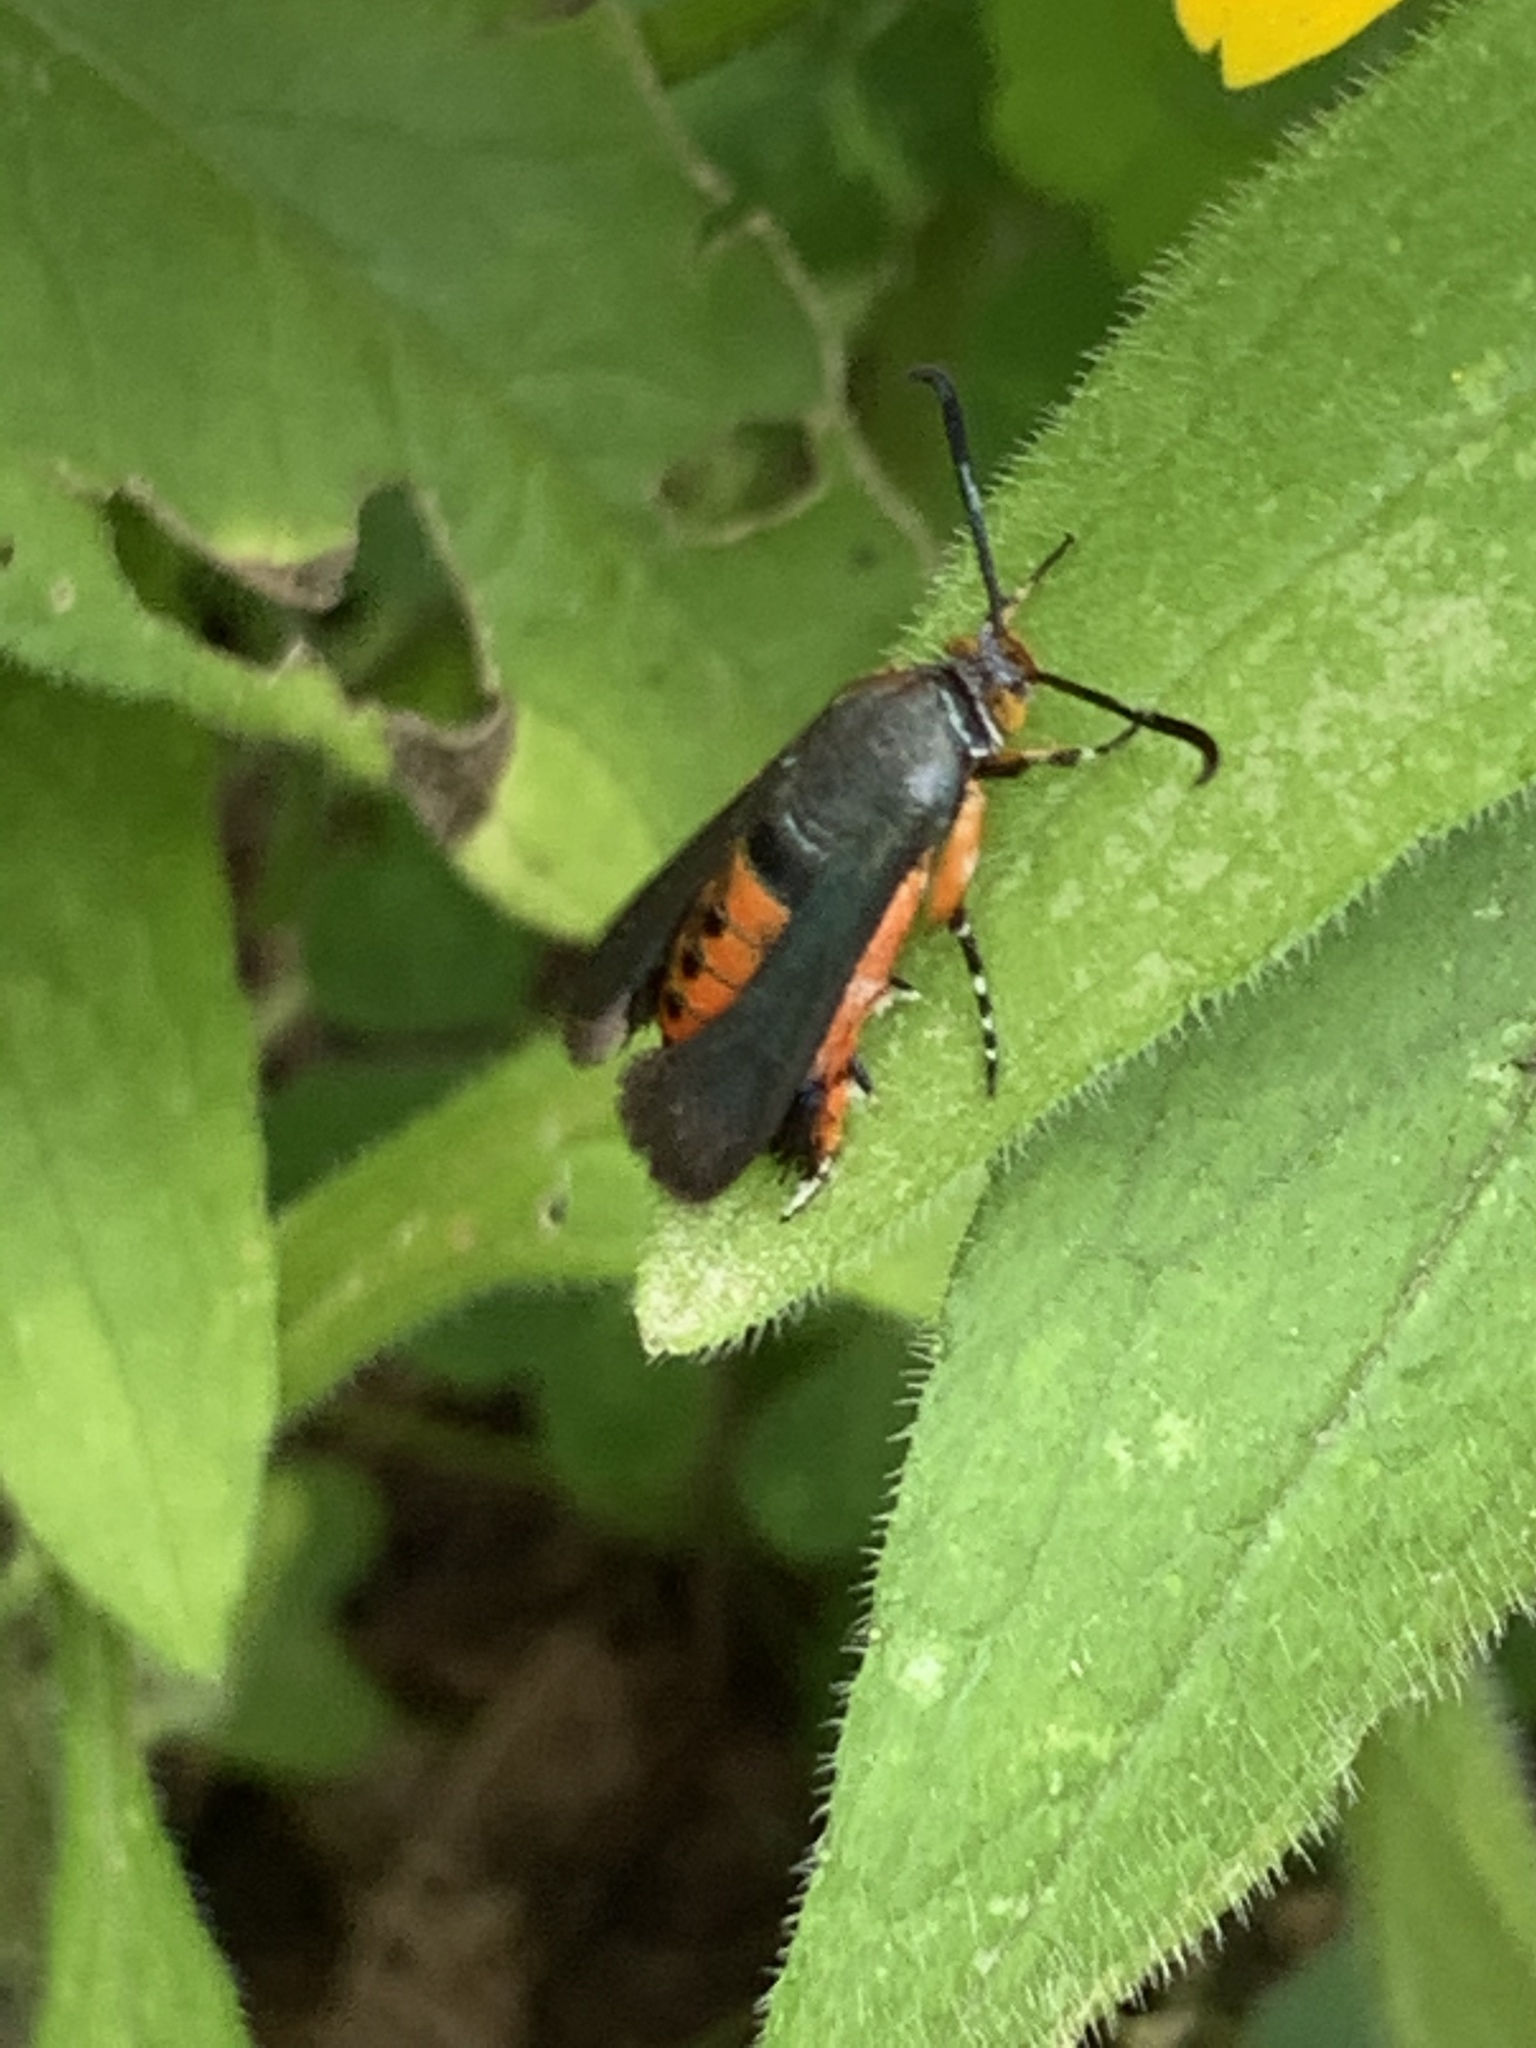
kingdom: Animalia
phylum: Arthropoda
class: Insecta
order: Lepidoptera
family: Sesiidae
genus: Eichlinia
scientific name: Eichlinia cucurbitae
